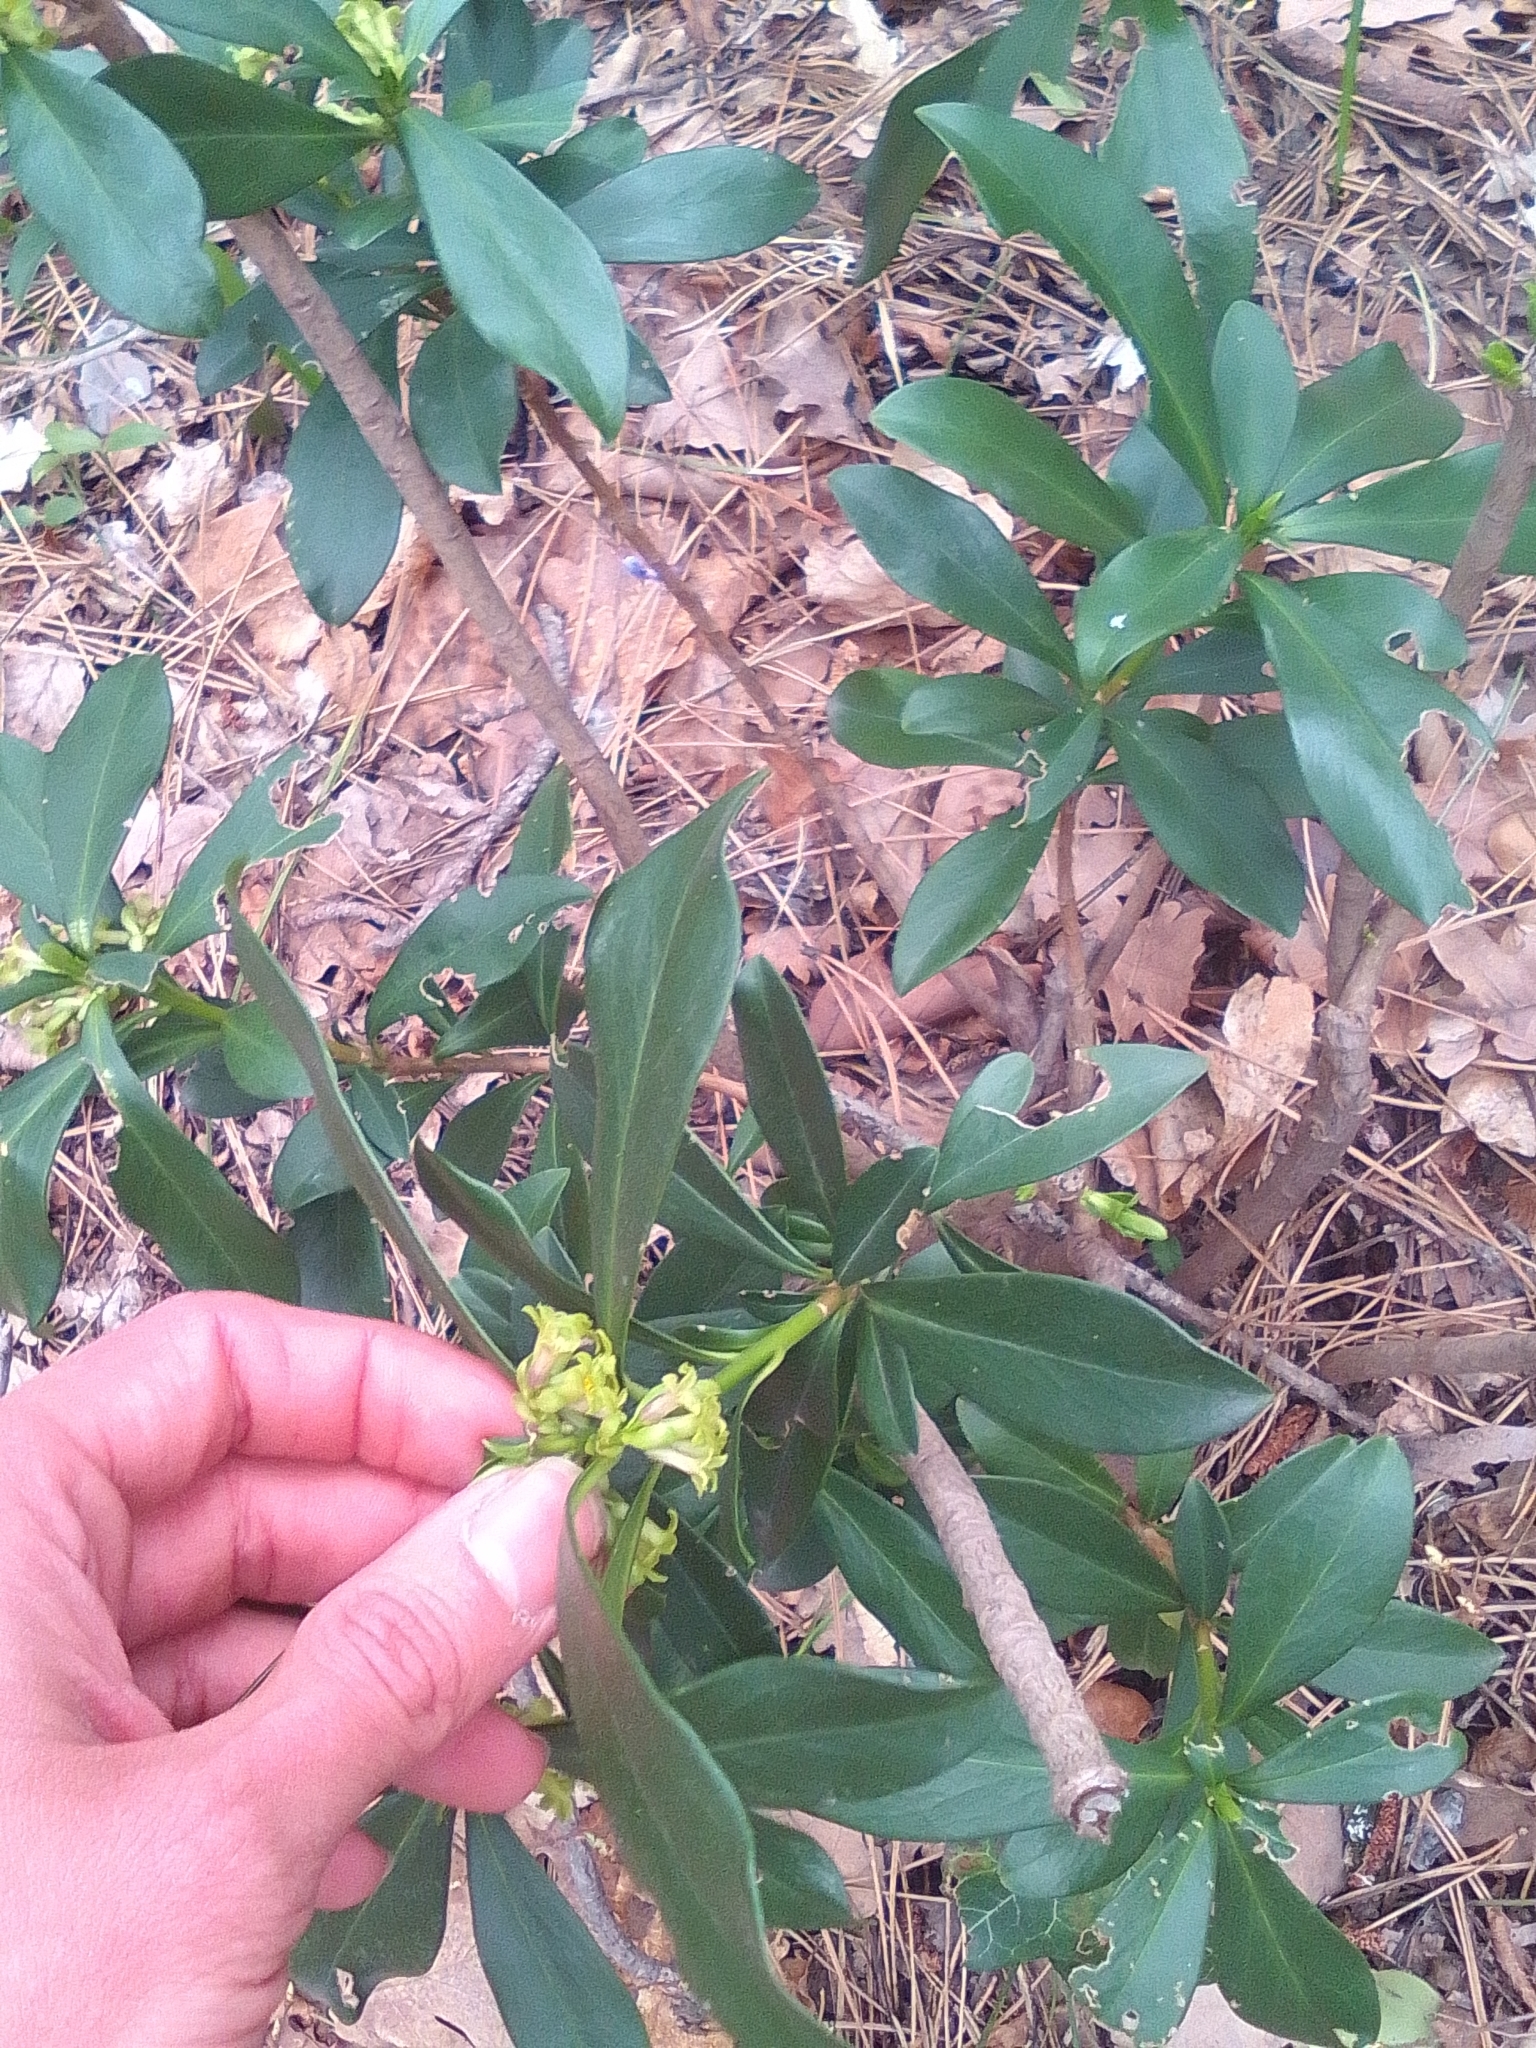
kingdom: Plantae
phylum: Tracheophyta
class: Magnoliopsida
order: Malvales
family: Thymelaeaceae
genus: Daphne
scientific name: Daphne laureola
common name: Spurge-laurel
